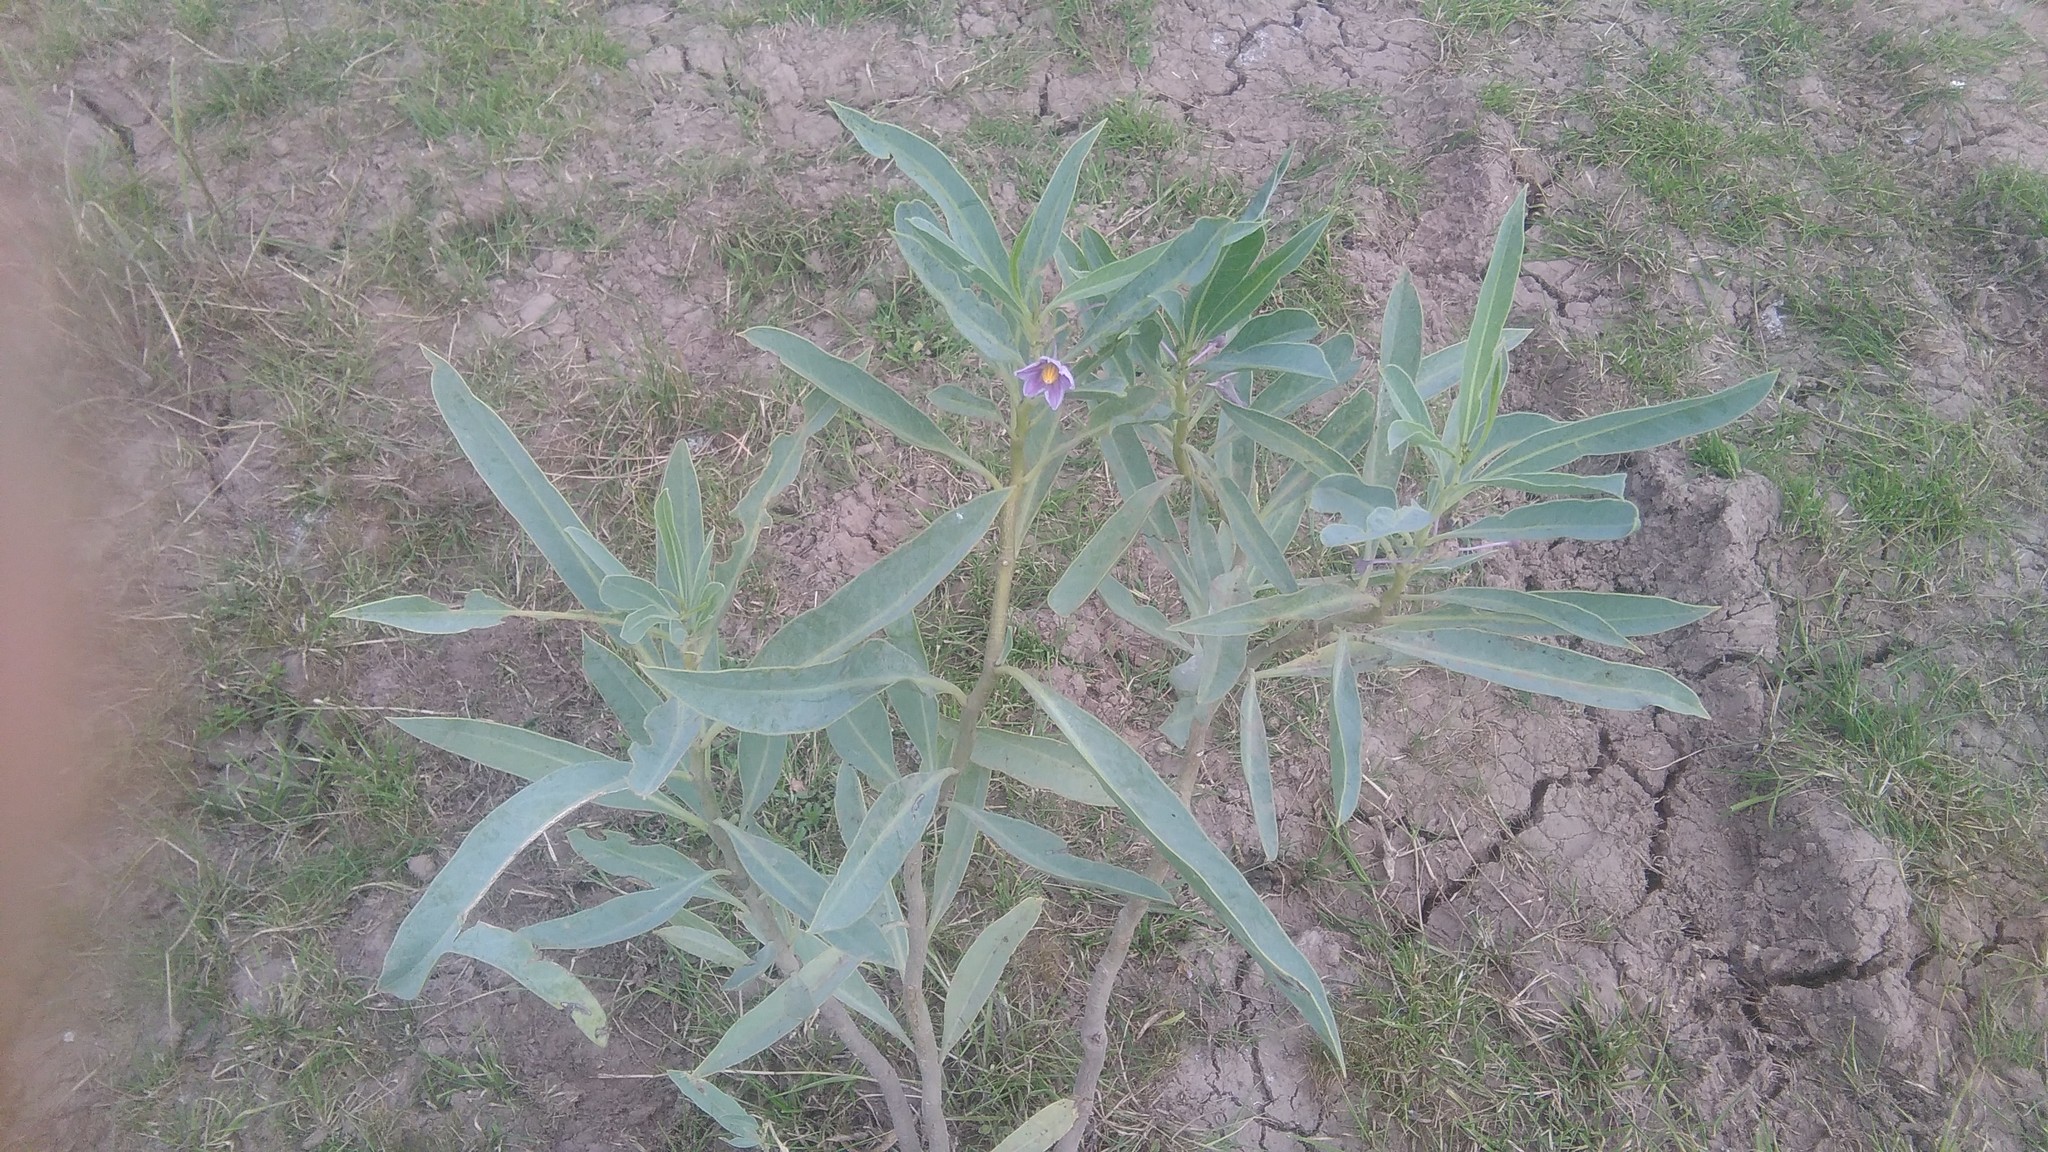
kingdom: Plantae
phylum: Tracheophyta
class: Magnoliopsida
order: Solanales
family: Solanaceae
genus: Solanum
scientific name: Solanum glaucophyllum
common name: Waxyleaf nightshade
